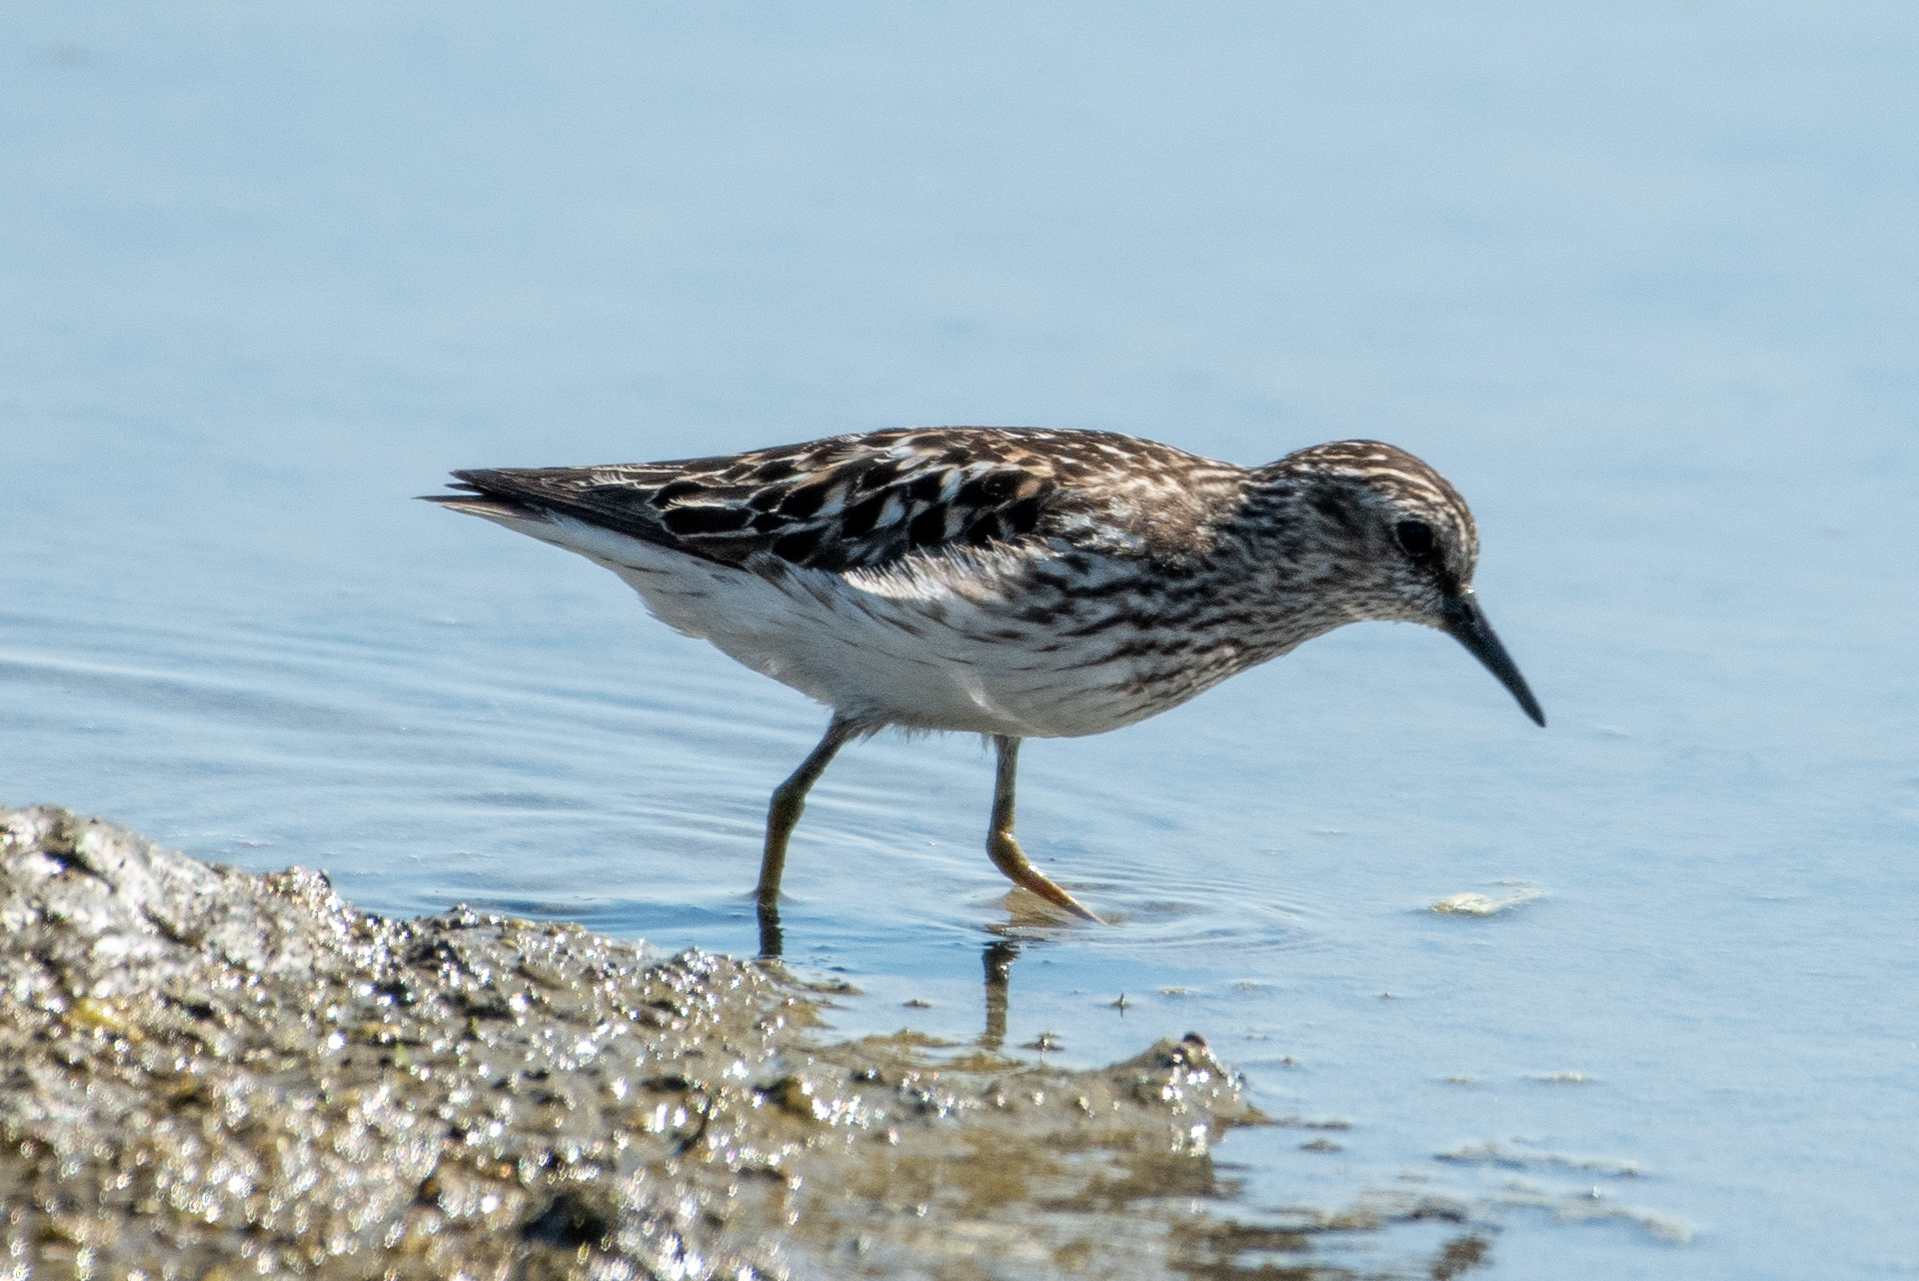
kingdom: Animalia
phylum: Chordata
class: Aves
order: Charadriiformes
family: Scolopacidae
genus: Calidris
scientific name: Calidris minutilla
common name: Least sandpiper
